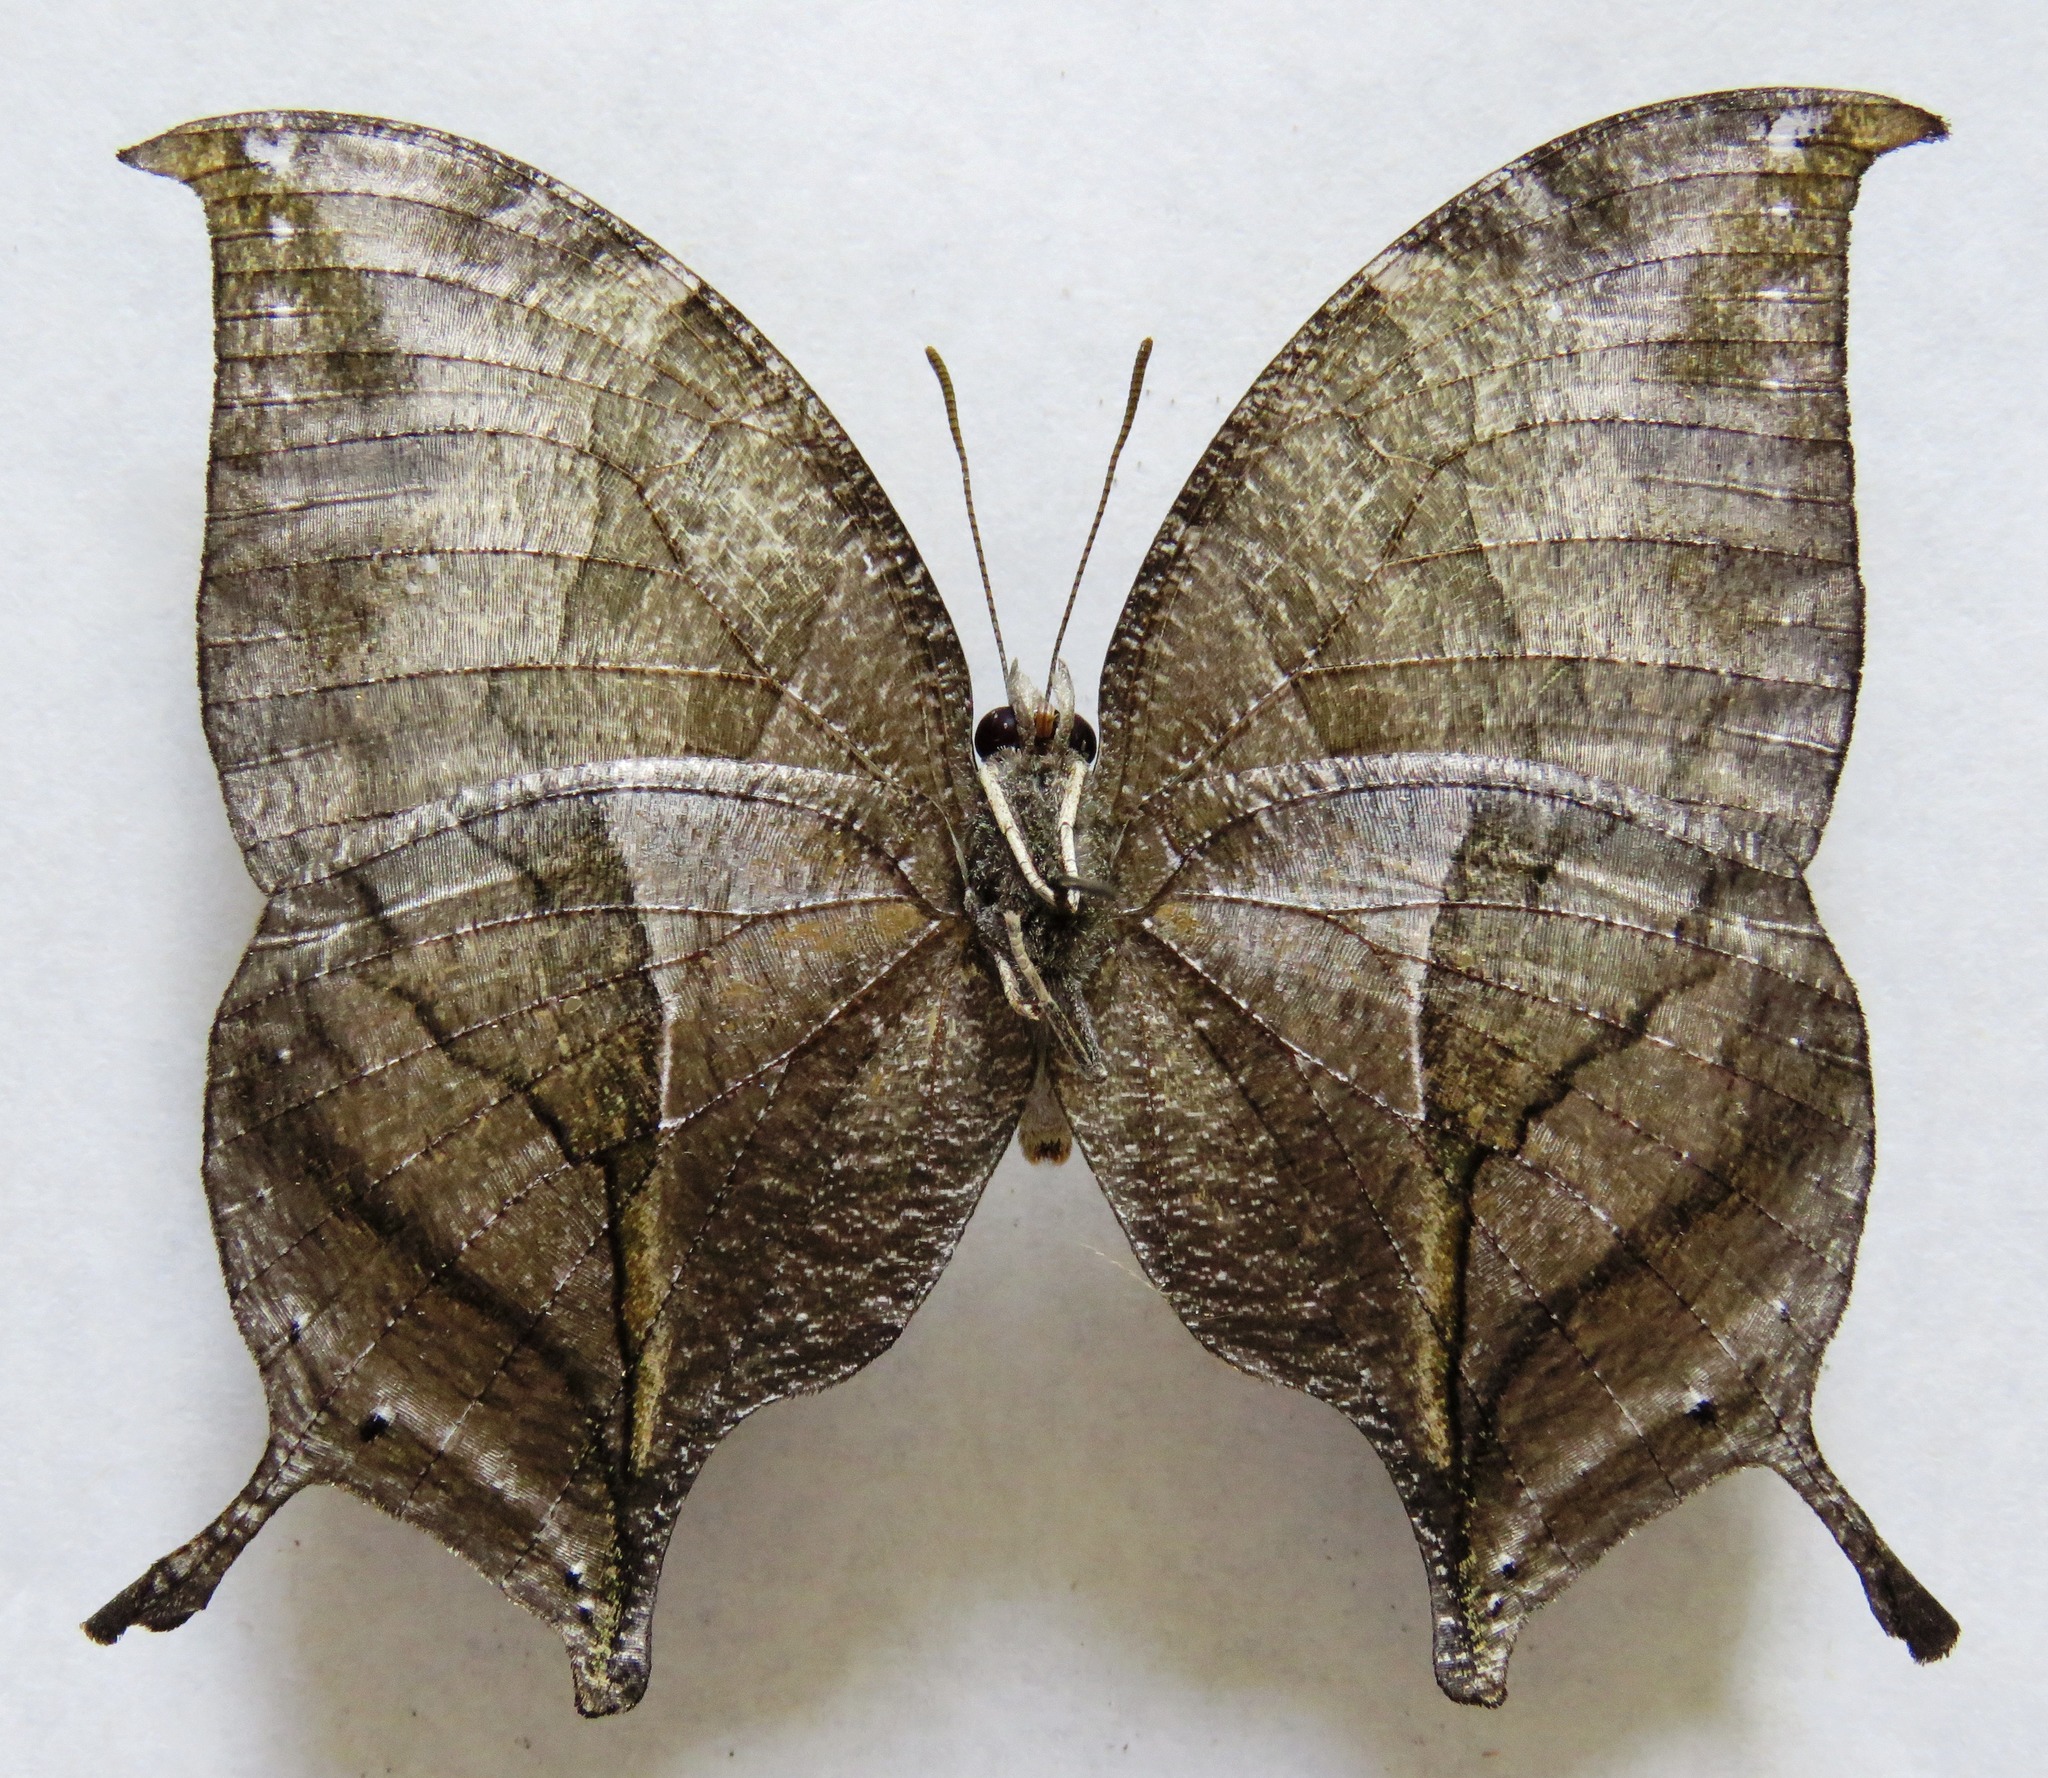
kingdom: Animalia
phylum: Arthropoda
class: Insecta
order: Lepidoptera
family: Nymphalidae
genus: Consul
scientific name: Consul electra
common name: Pearly leafwing
